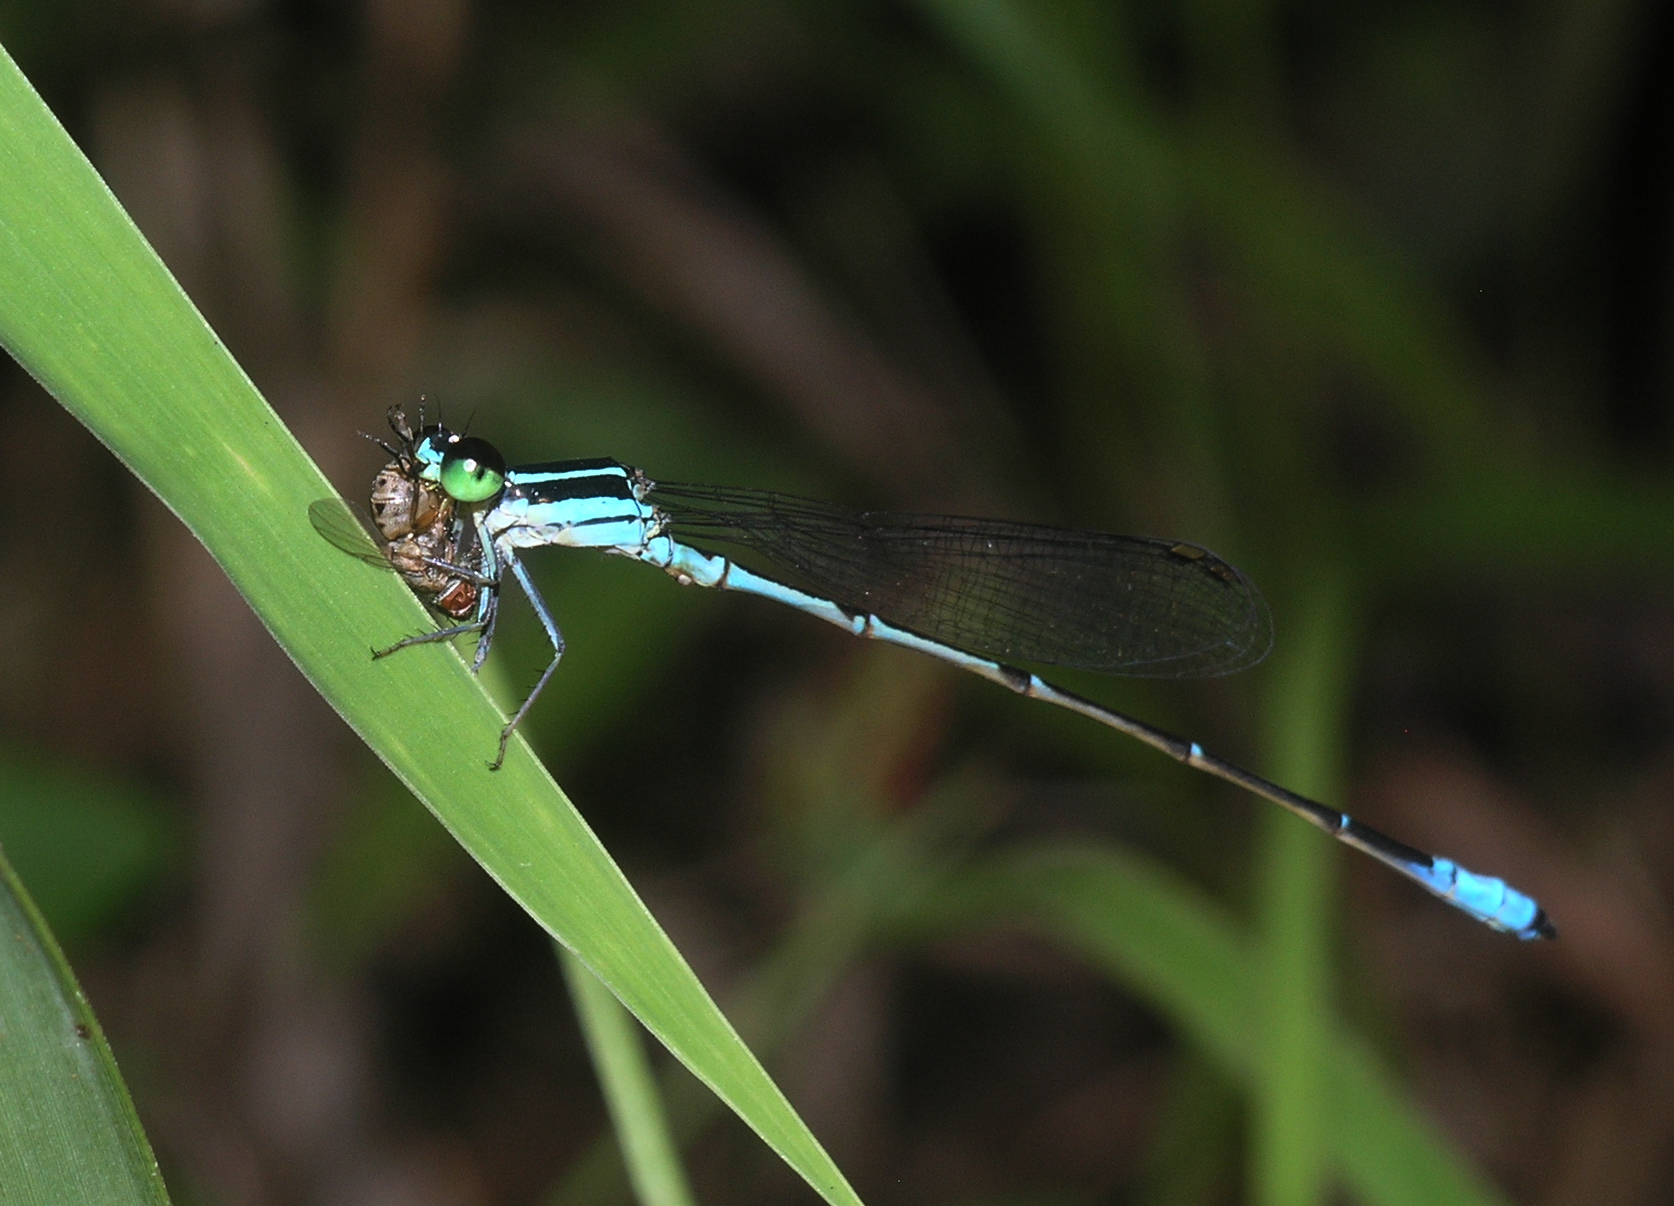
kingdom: Animalia
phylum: Arthropoda
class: Insecta
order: Odonata
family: Coenagrionidae
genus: Argiocnemis
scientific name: Argiocnemis rubescens
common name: Red-tipped shadefly
